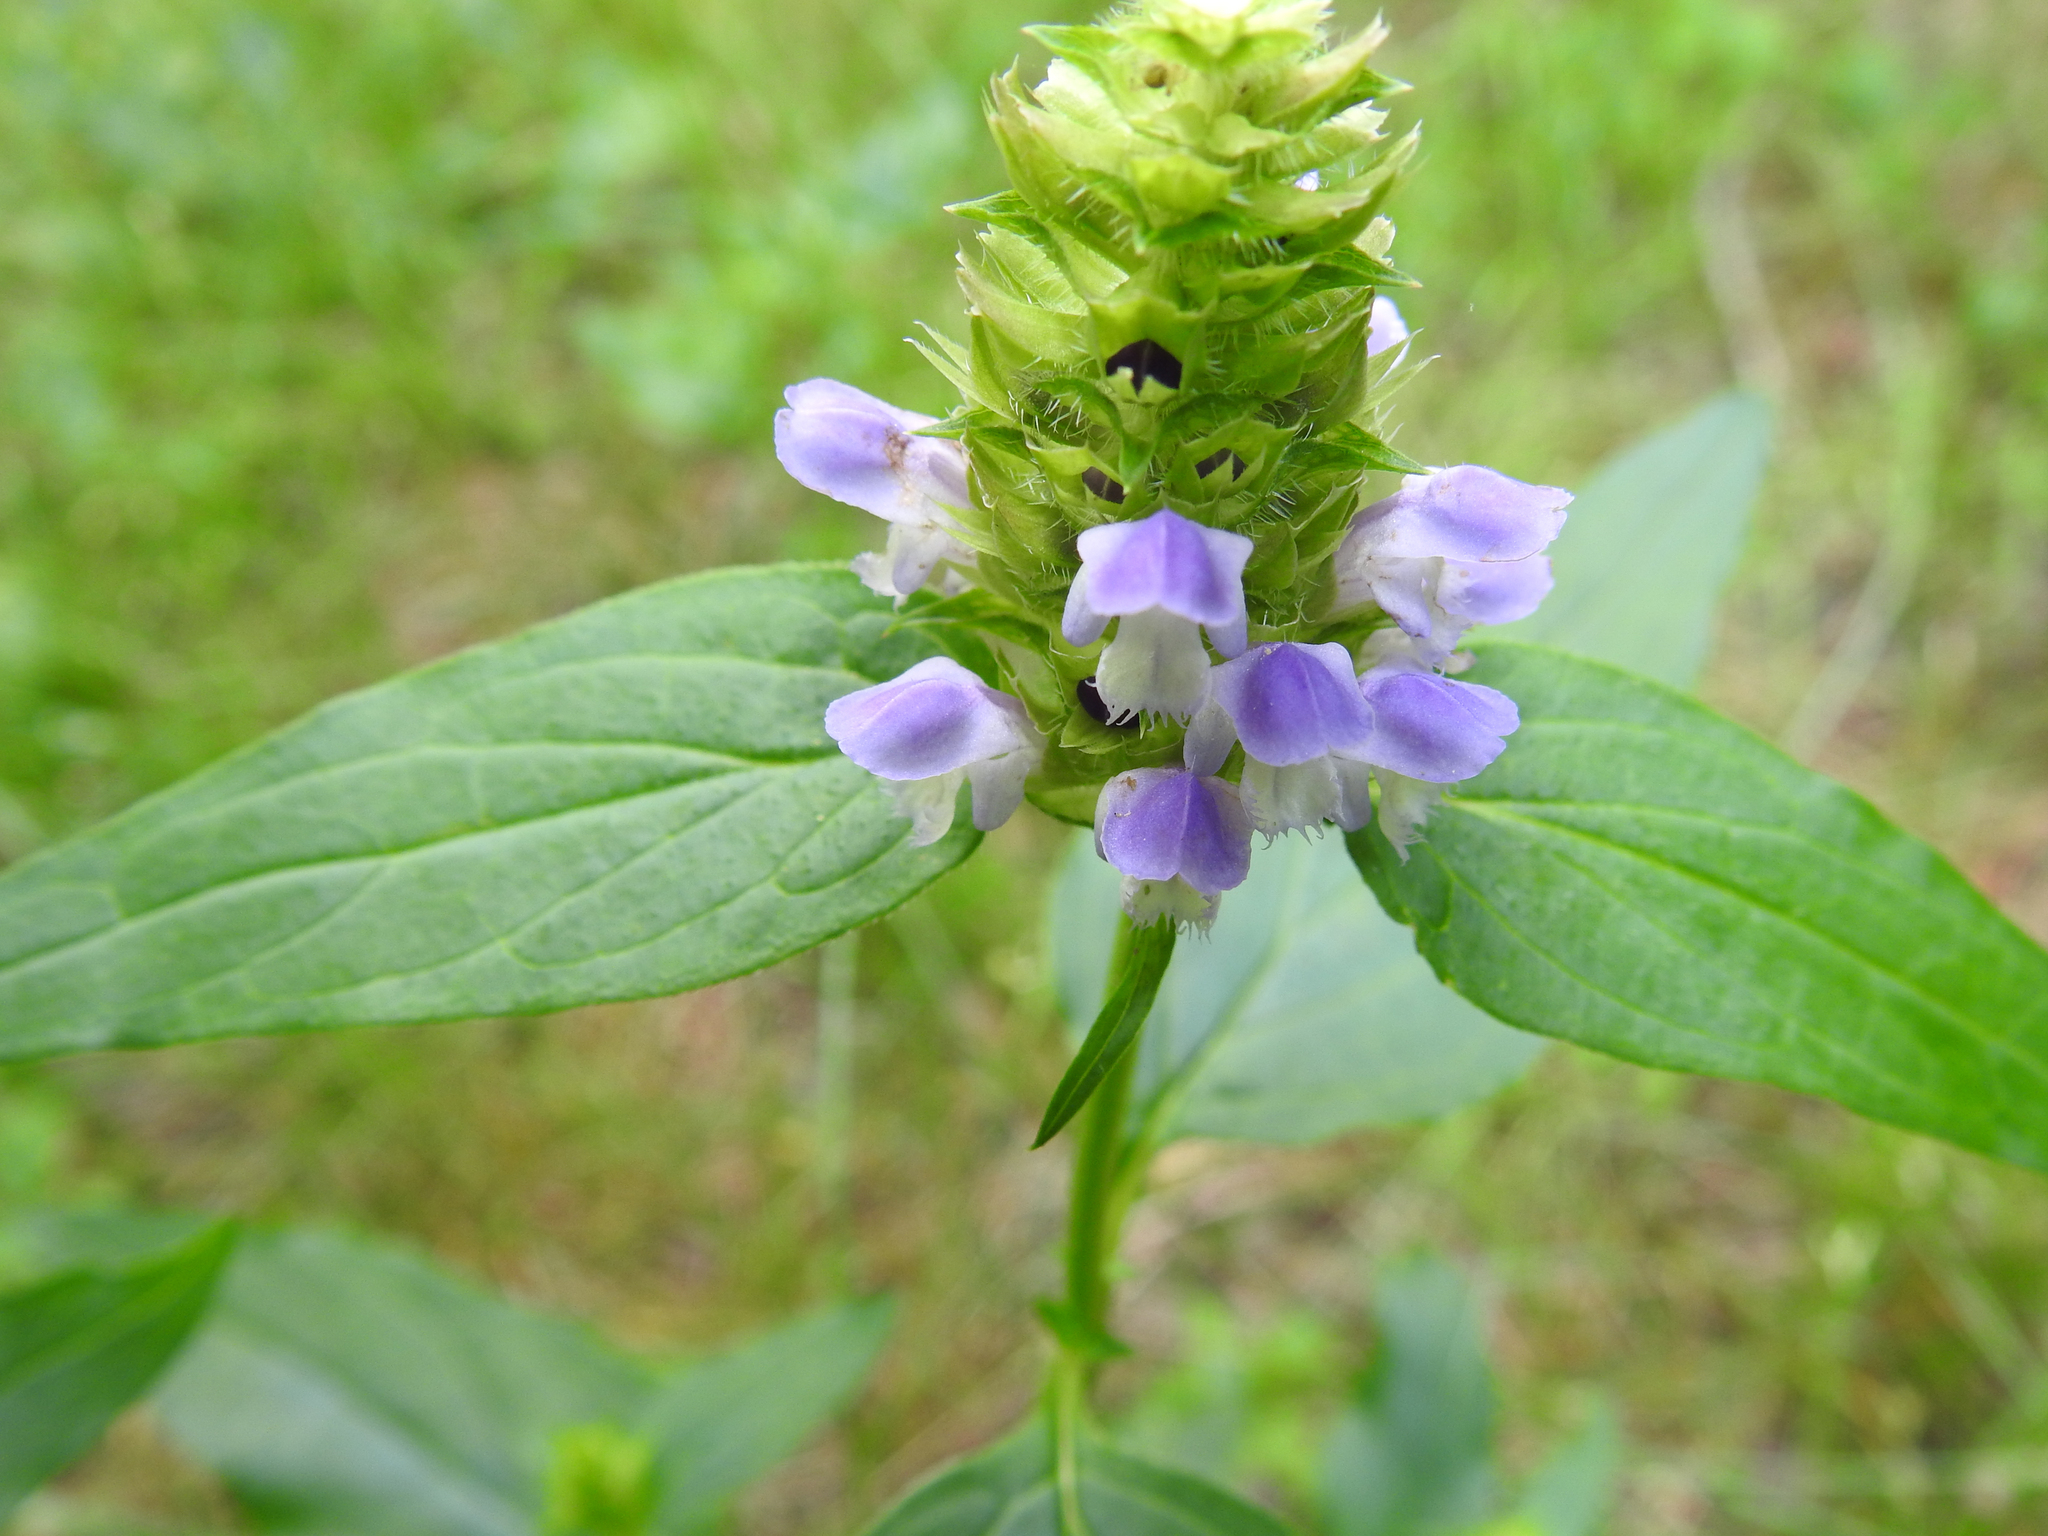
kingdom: Plantae
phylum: Tracheophyta
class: Magnoliopsida
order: Lamiales
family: Lamiaceae
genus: Prunella
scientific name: Prunella vulgaris
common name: Heal-all
